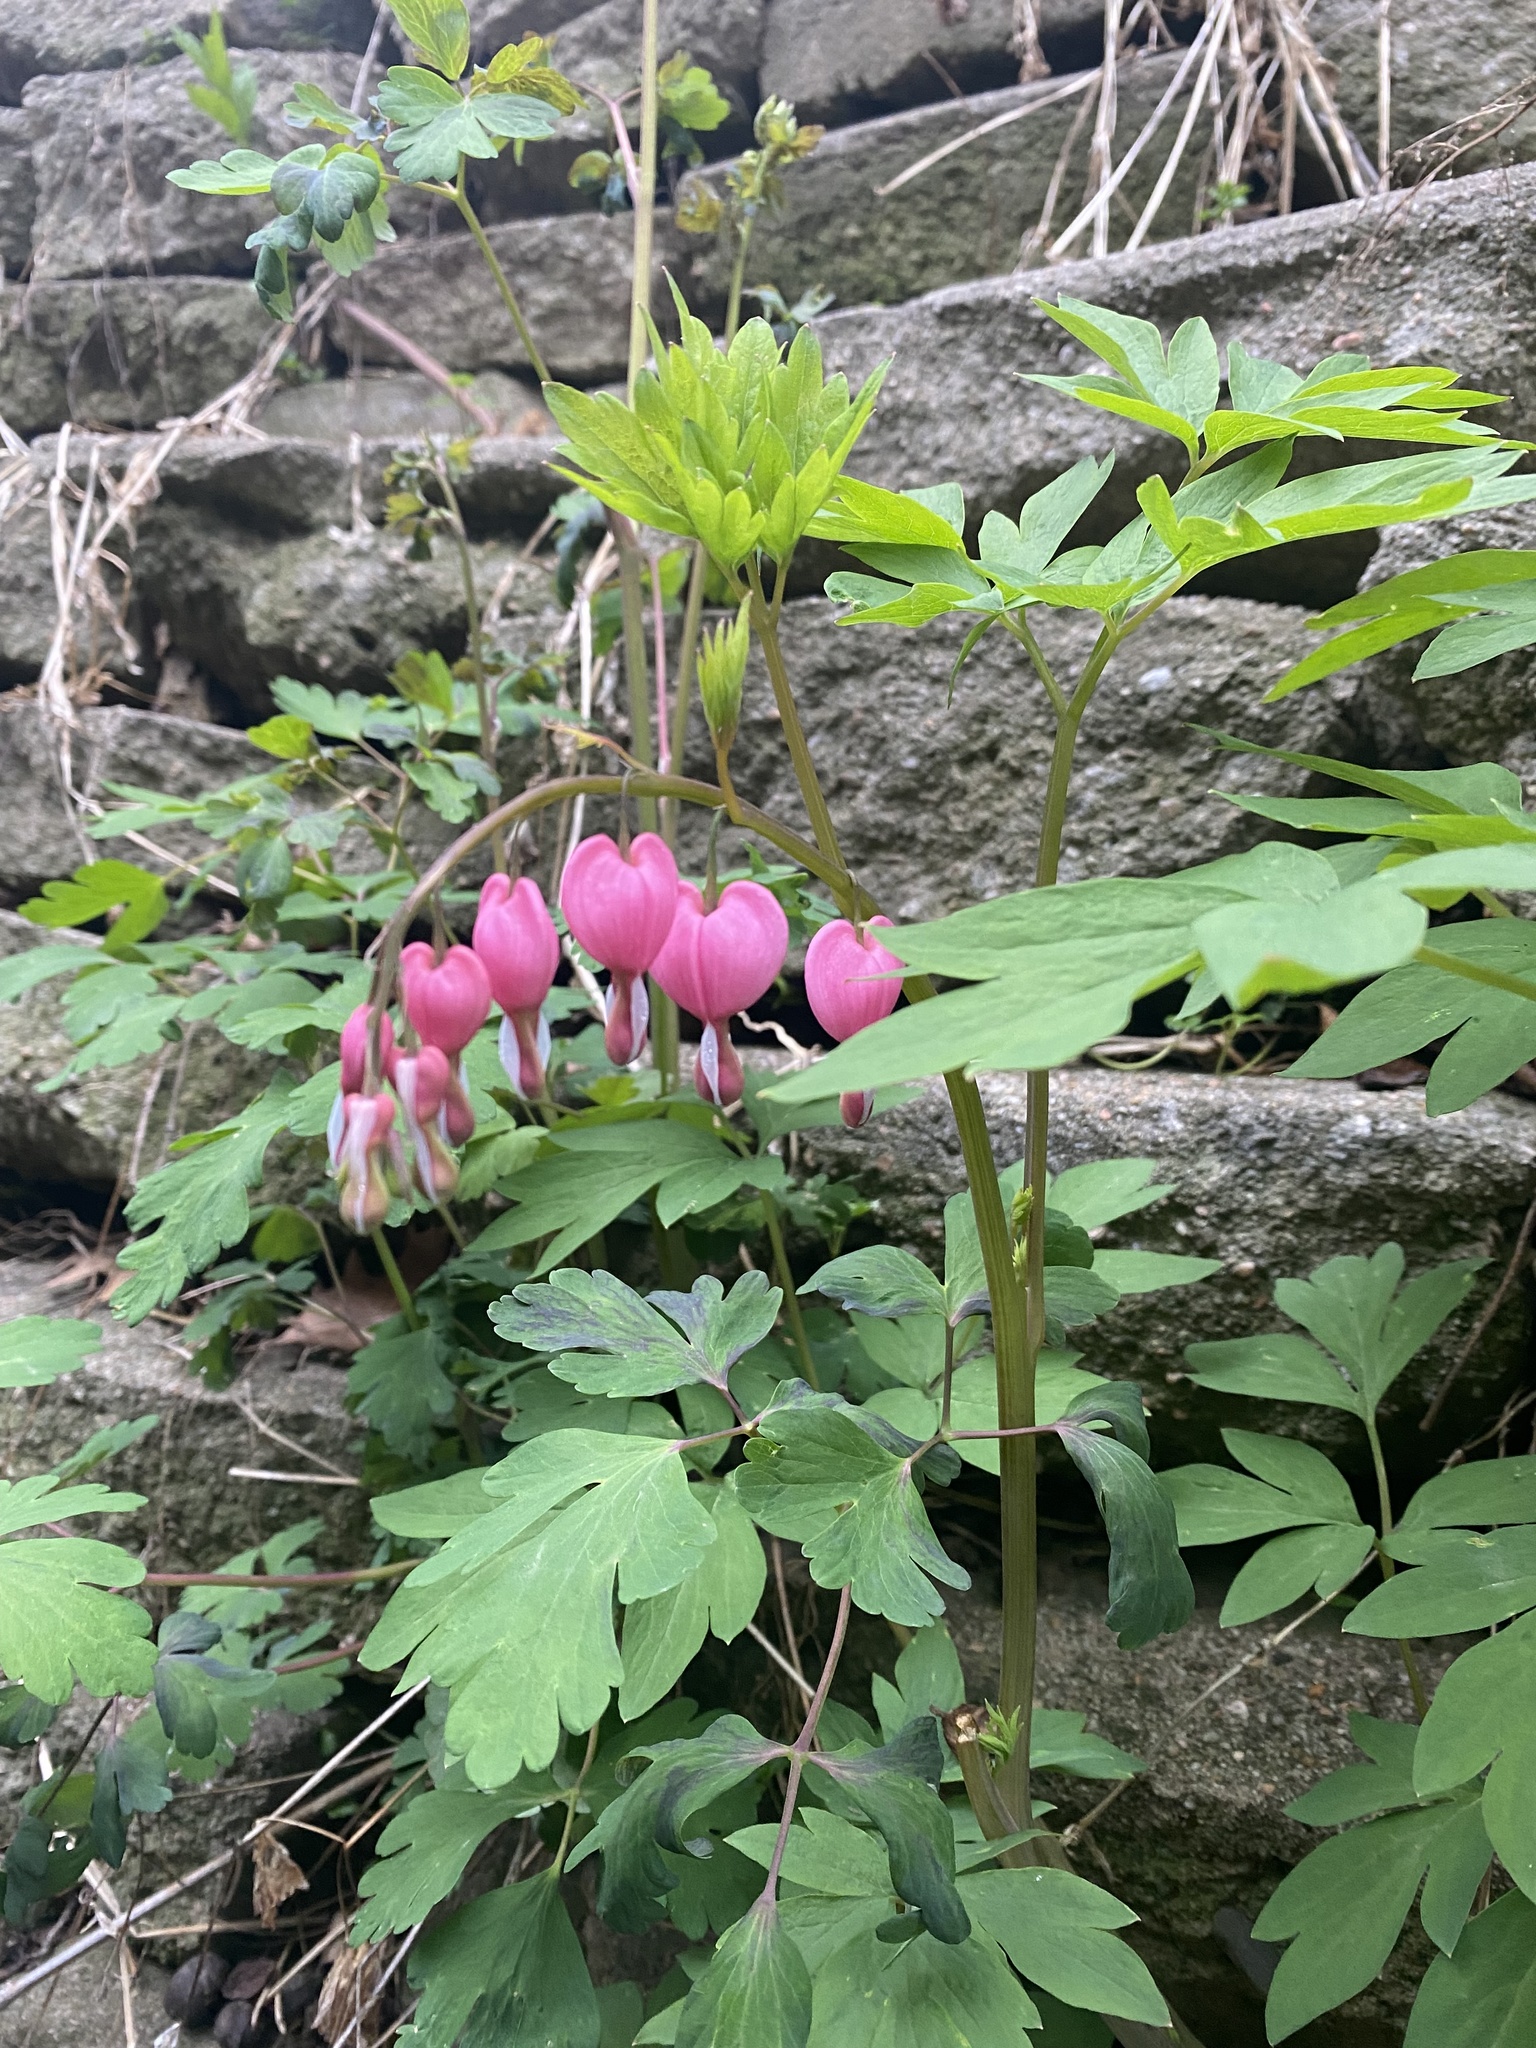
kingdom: Plantae
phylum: Tracheophyta
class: Magnoliopsida
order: Ranunculales
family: Papaveraceae
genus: Lamprocapnos
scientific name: Lamprocapnos spectabilis
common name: Asian bleeding-heart
